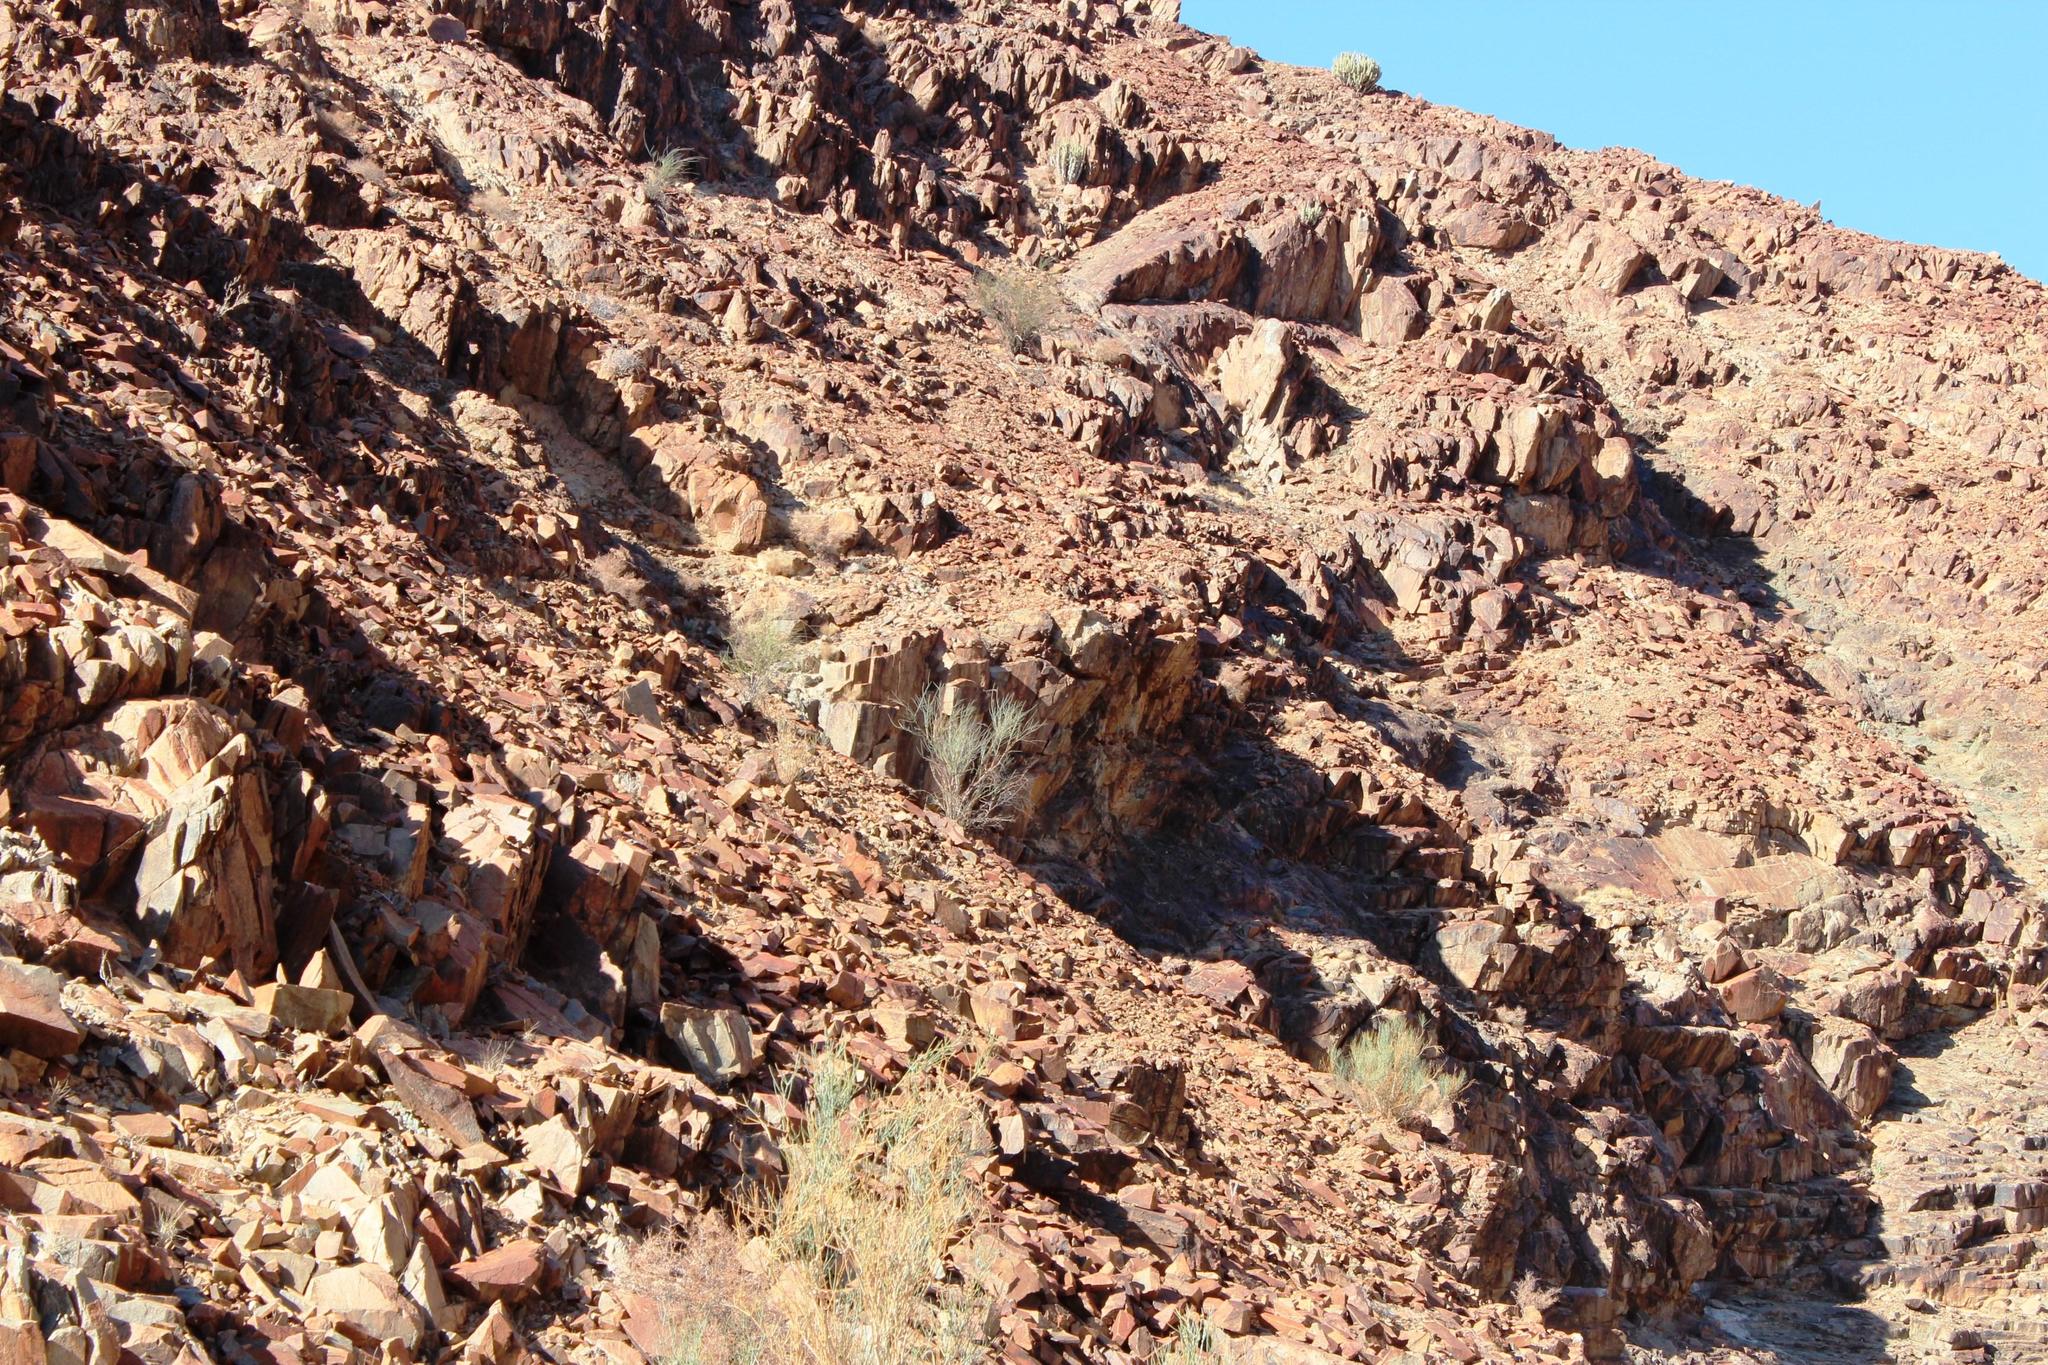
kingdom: Plantae
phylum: Tracheophyta
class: Magnoliopsida
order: Malpighiales
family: Euphorbiaceae
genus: Euphorbia
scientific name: Euphorbia virosa
